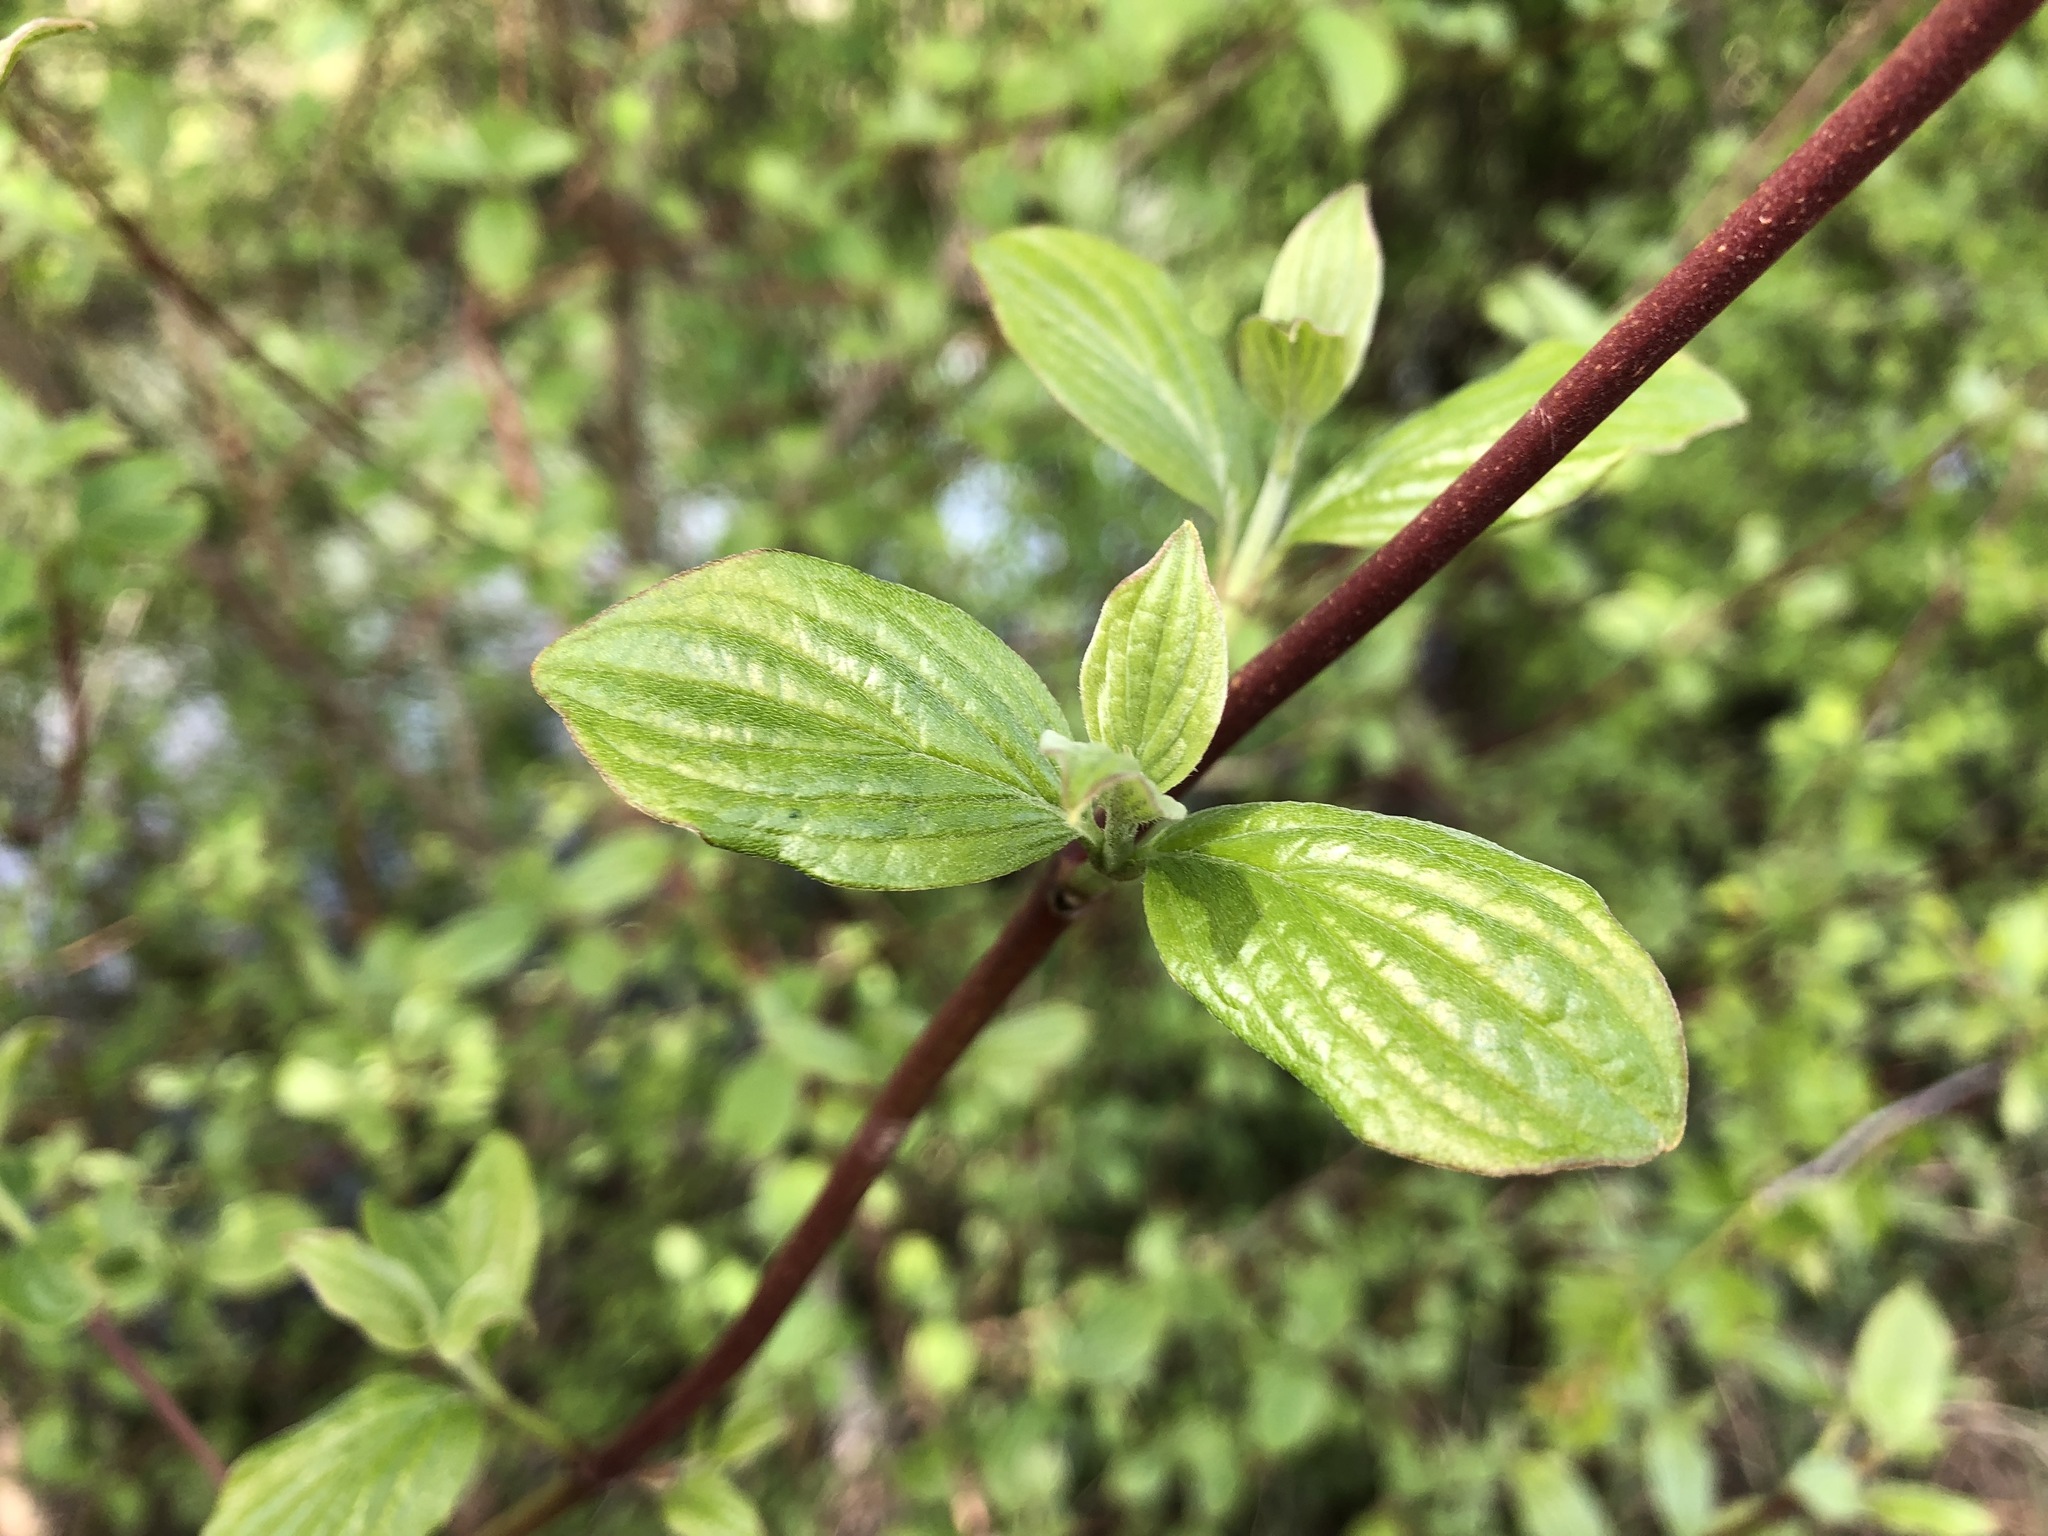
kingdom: Plantae
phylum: Tracheophyta
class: Magnoliopsida
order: Cornales
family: Cornaceae
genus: Cornus
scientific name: Cornus sanguinea
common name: Dogwood
